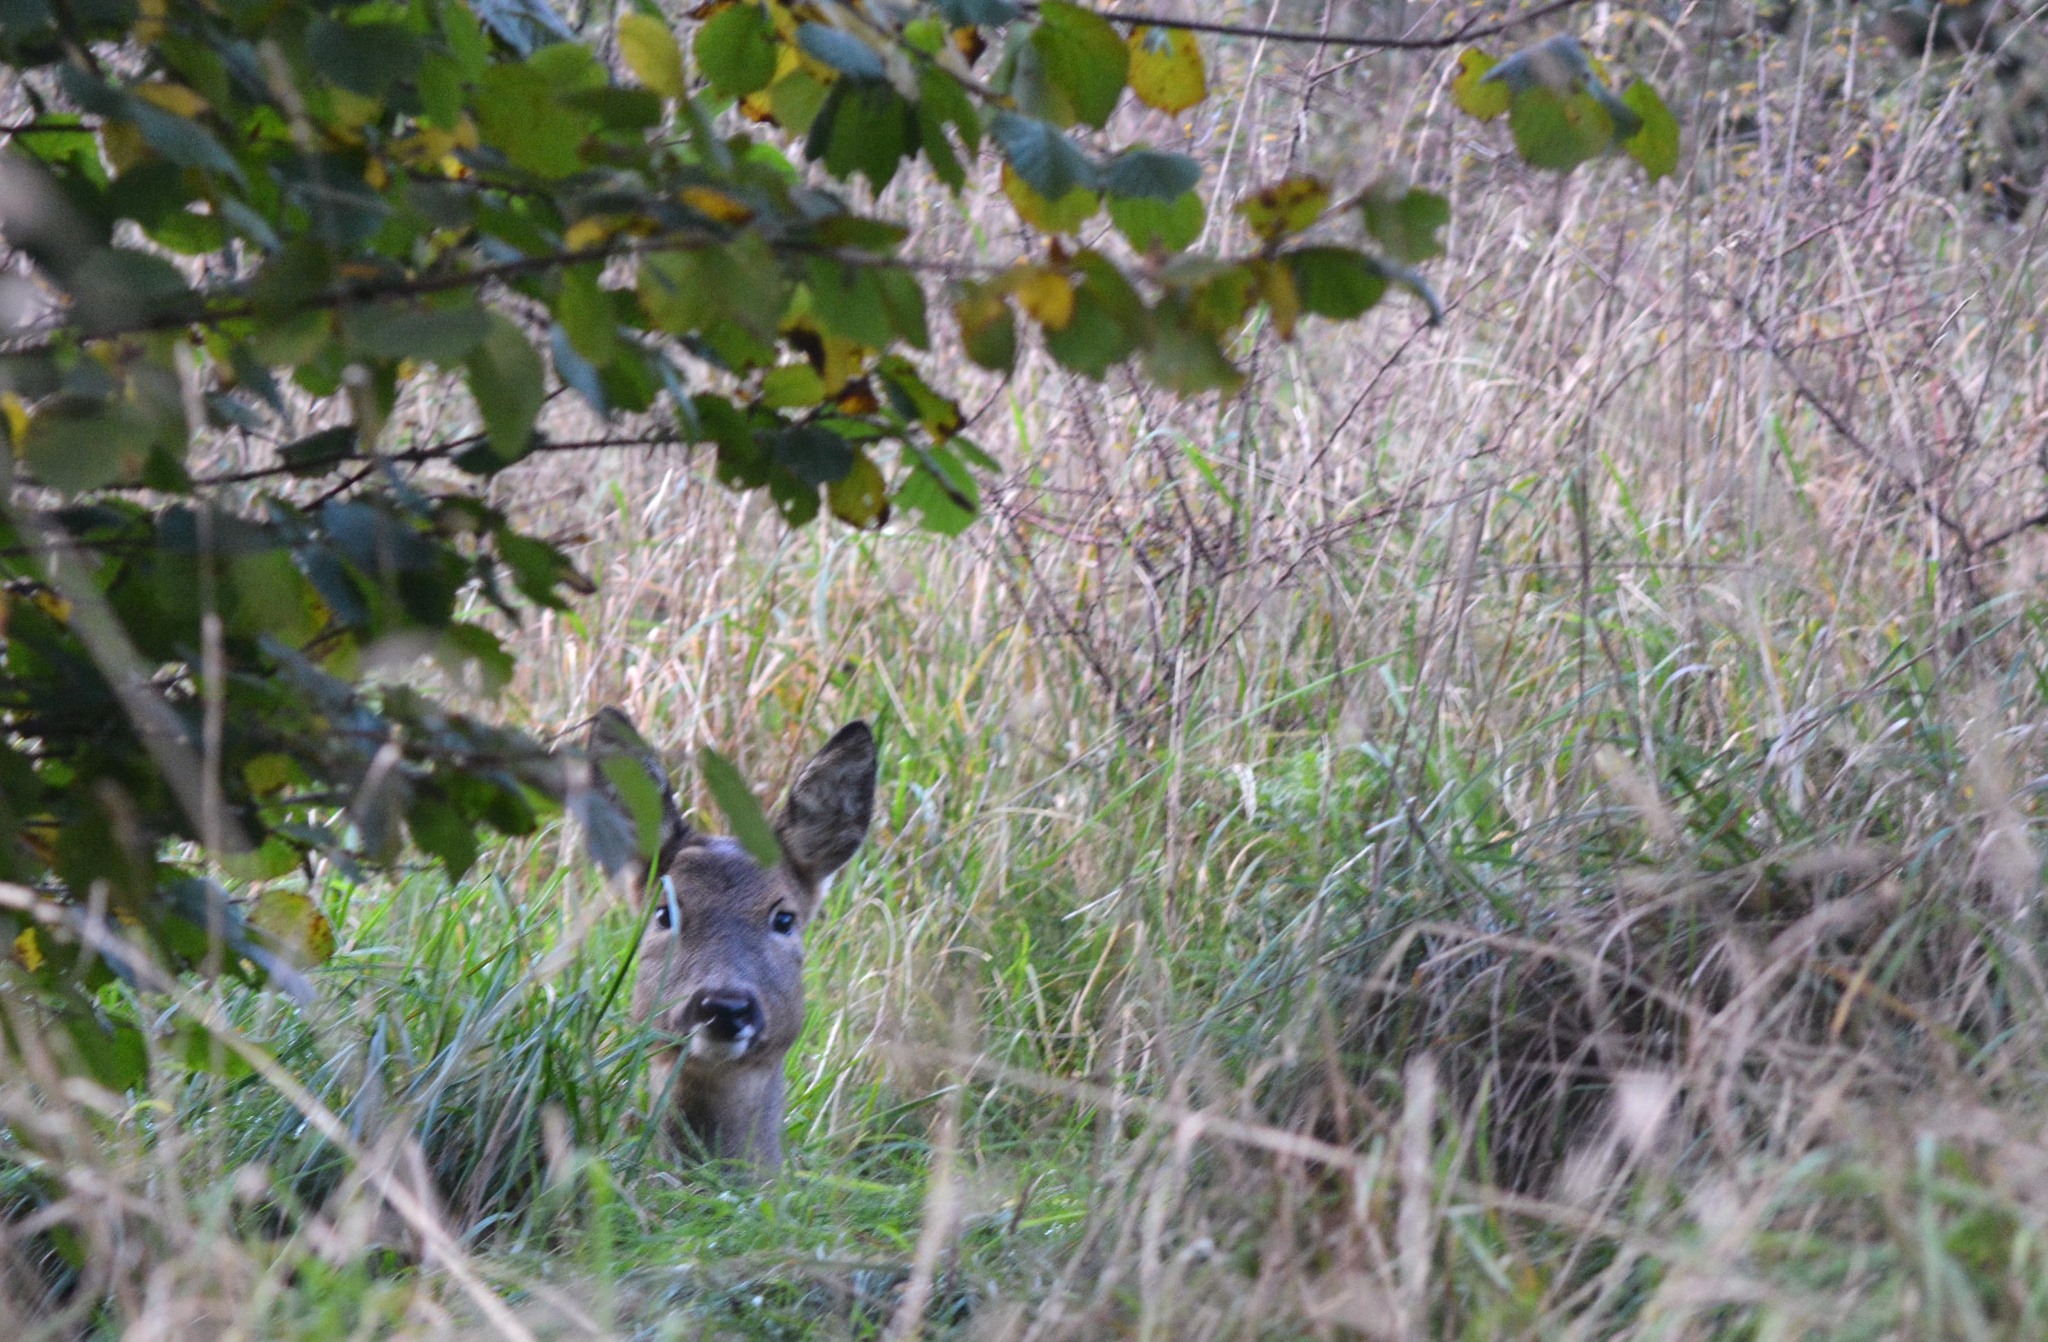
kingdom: Animalia
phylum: Chordata
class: Mammalia
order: Artiodactyla
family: Cervidae
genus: Capreolus
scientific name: Capreolus capreolus
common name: Western roe deer
